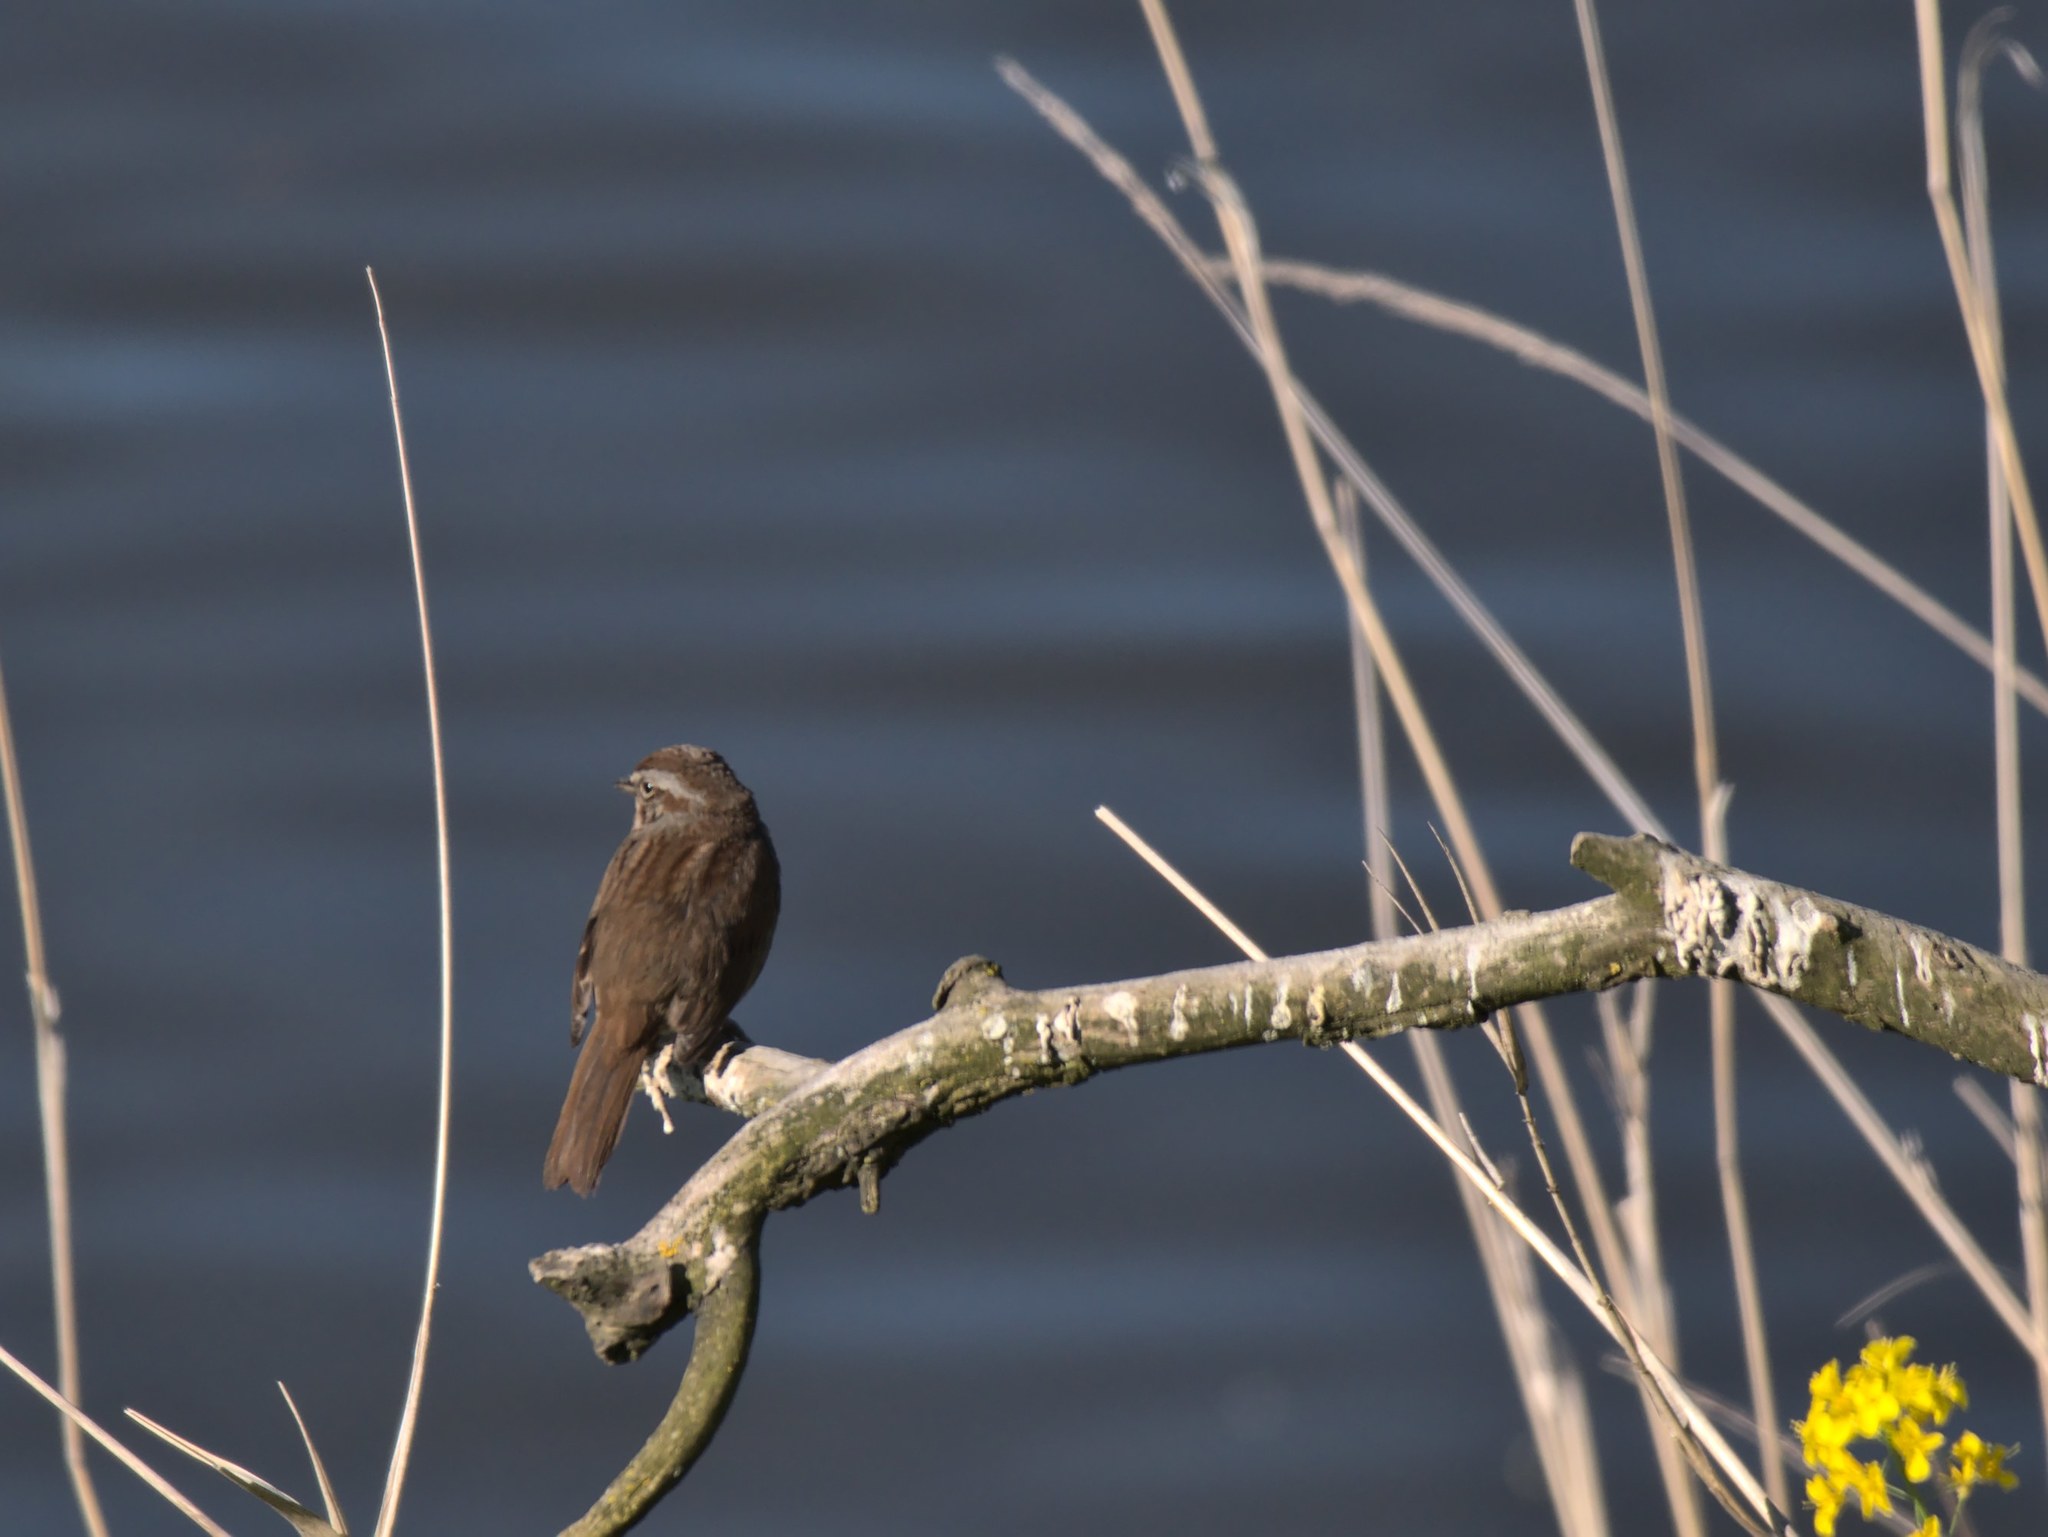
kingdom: Animalia
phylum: Chordata
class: Aves
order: Passeriformes
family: Passerellidae
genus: Melospiza
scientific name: Melospiza melodia
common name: Song sparrow
